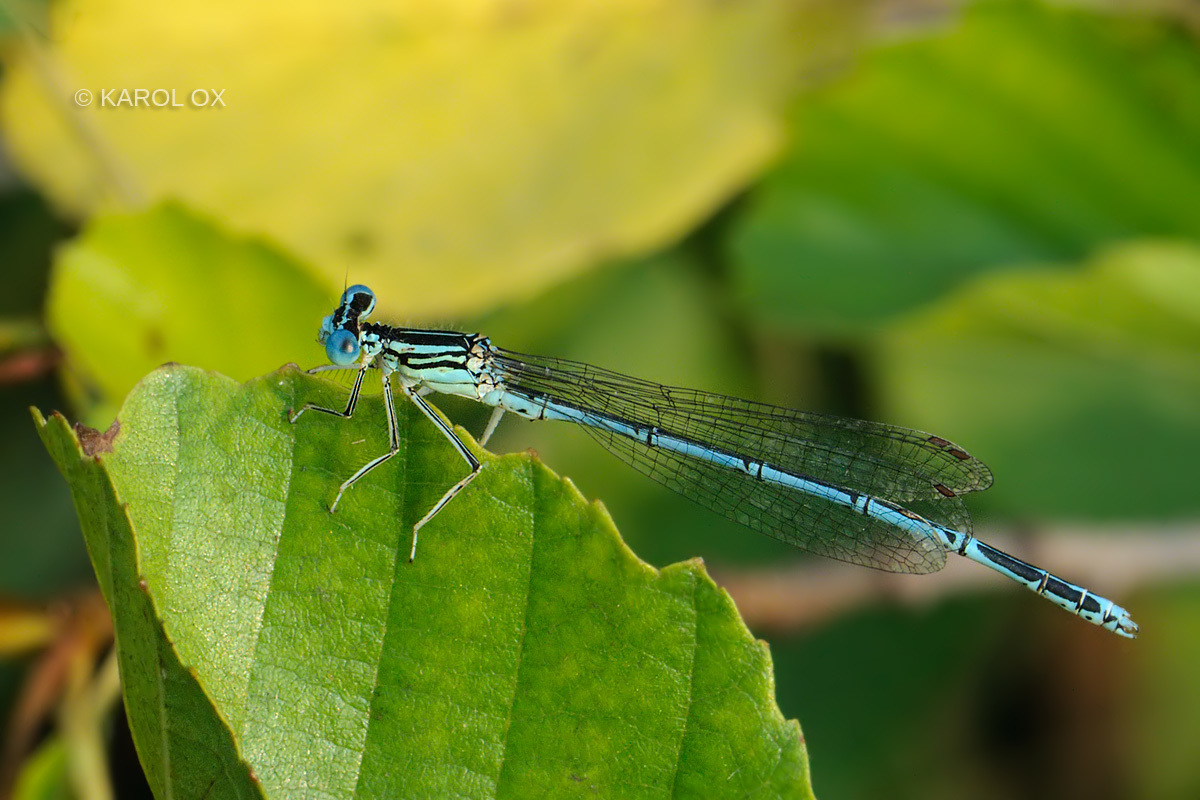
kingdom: Animalia
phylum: Arthropoda
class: Insecta
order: Odonata
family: Platycnemididae
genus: Platycnemis
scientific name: Platycnemis pennipes
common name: White-legged damselfly
